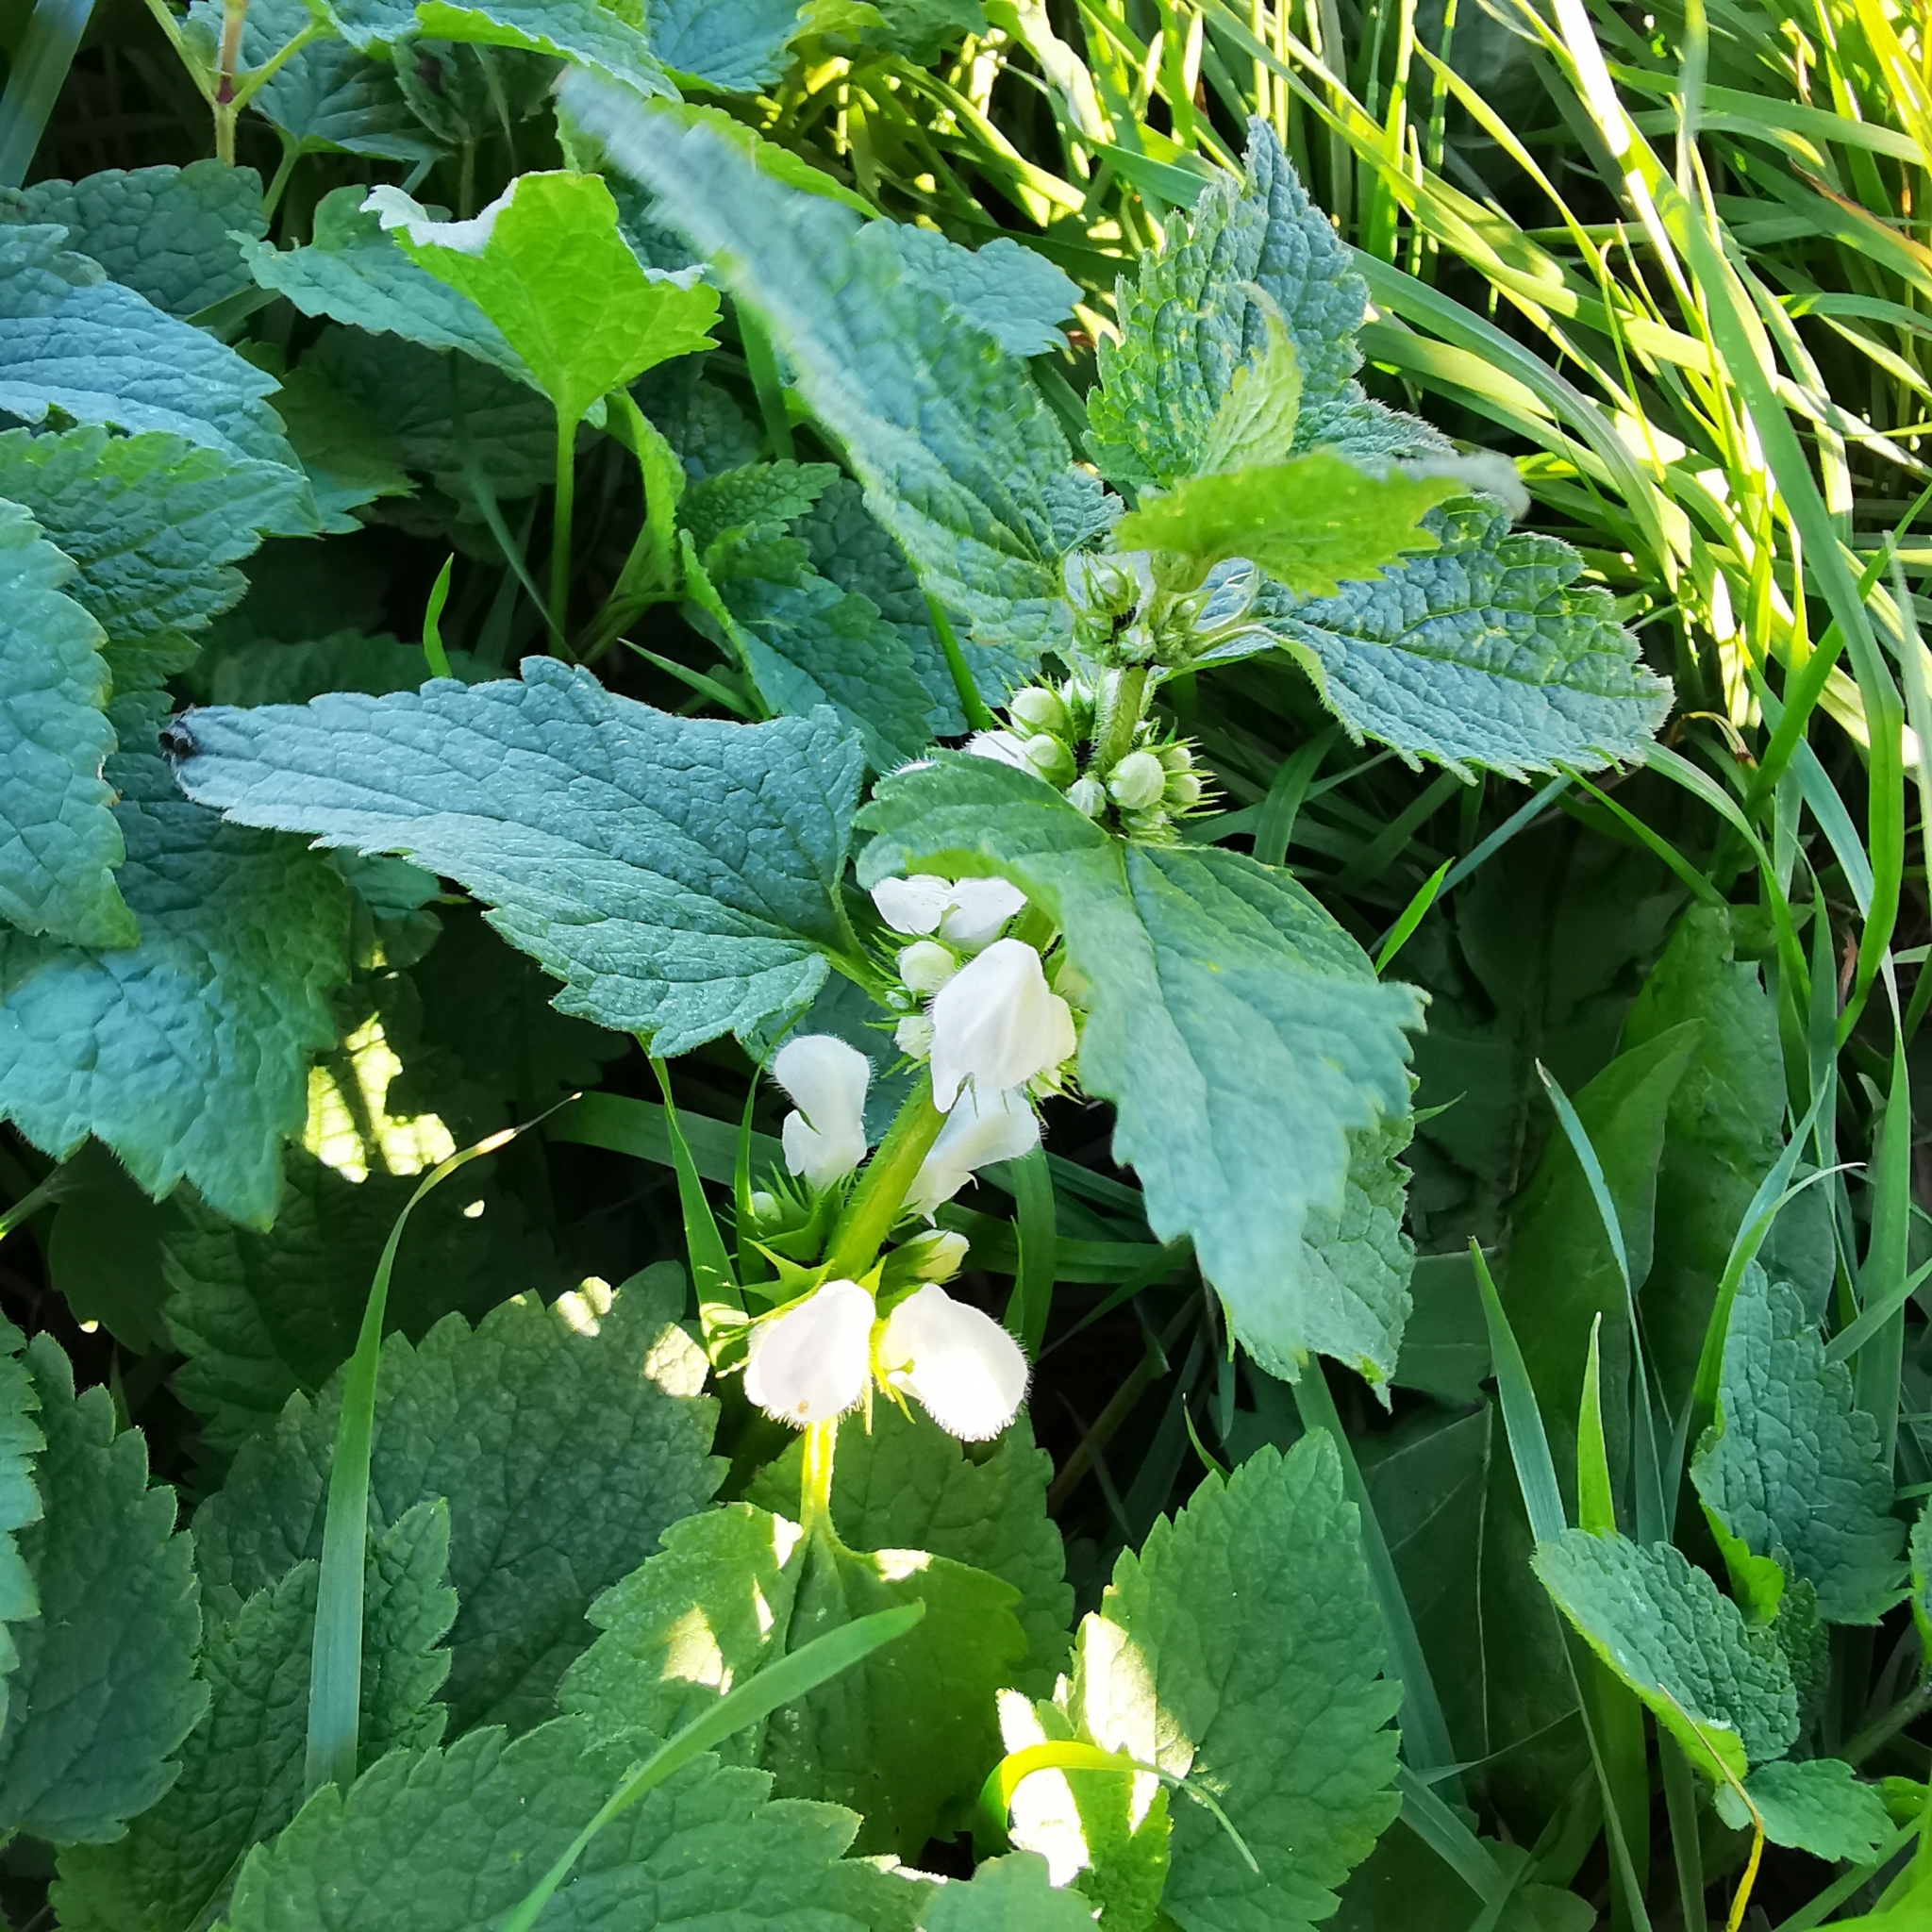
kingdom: Plantae
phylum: Tracheophyta
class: Magnoliopsida
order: Lamiales
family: Lamiaceae
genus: Lamium
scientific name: Lamium album
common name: White dead-nettle
